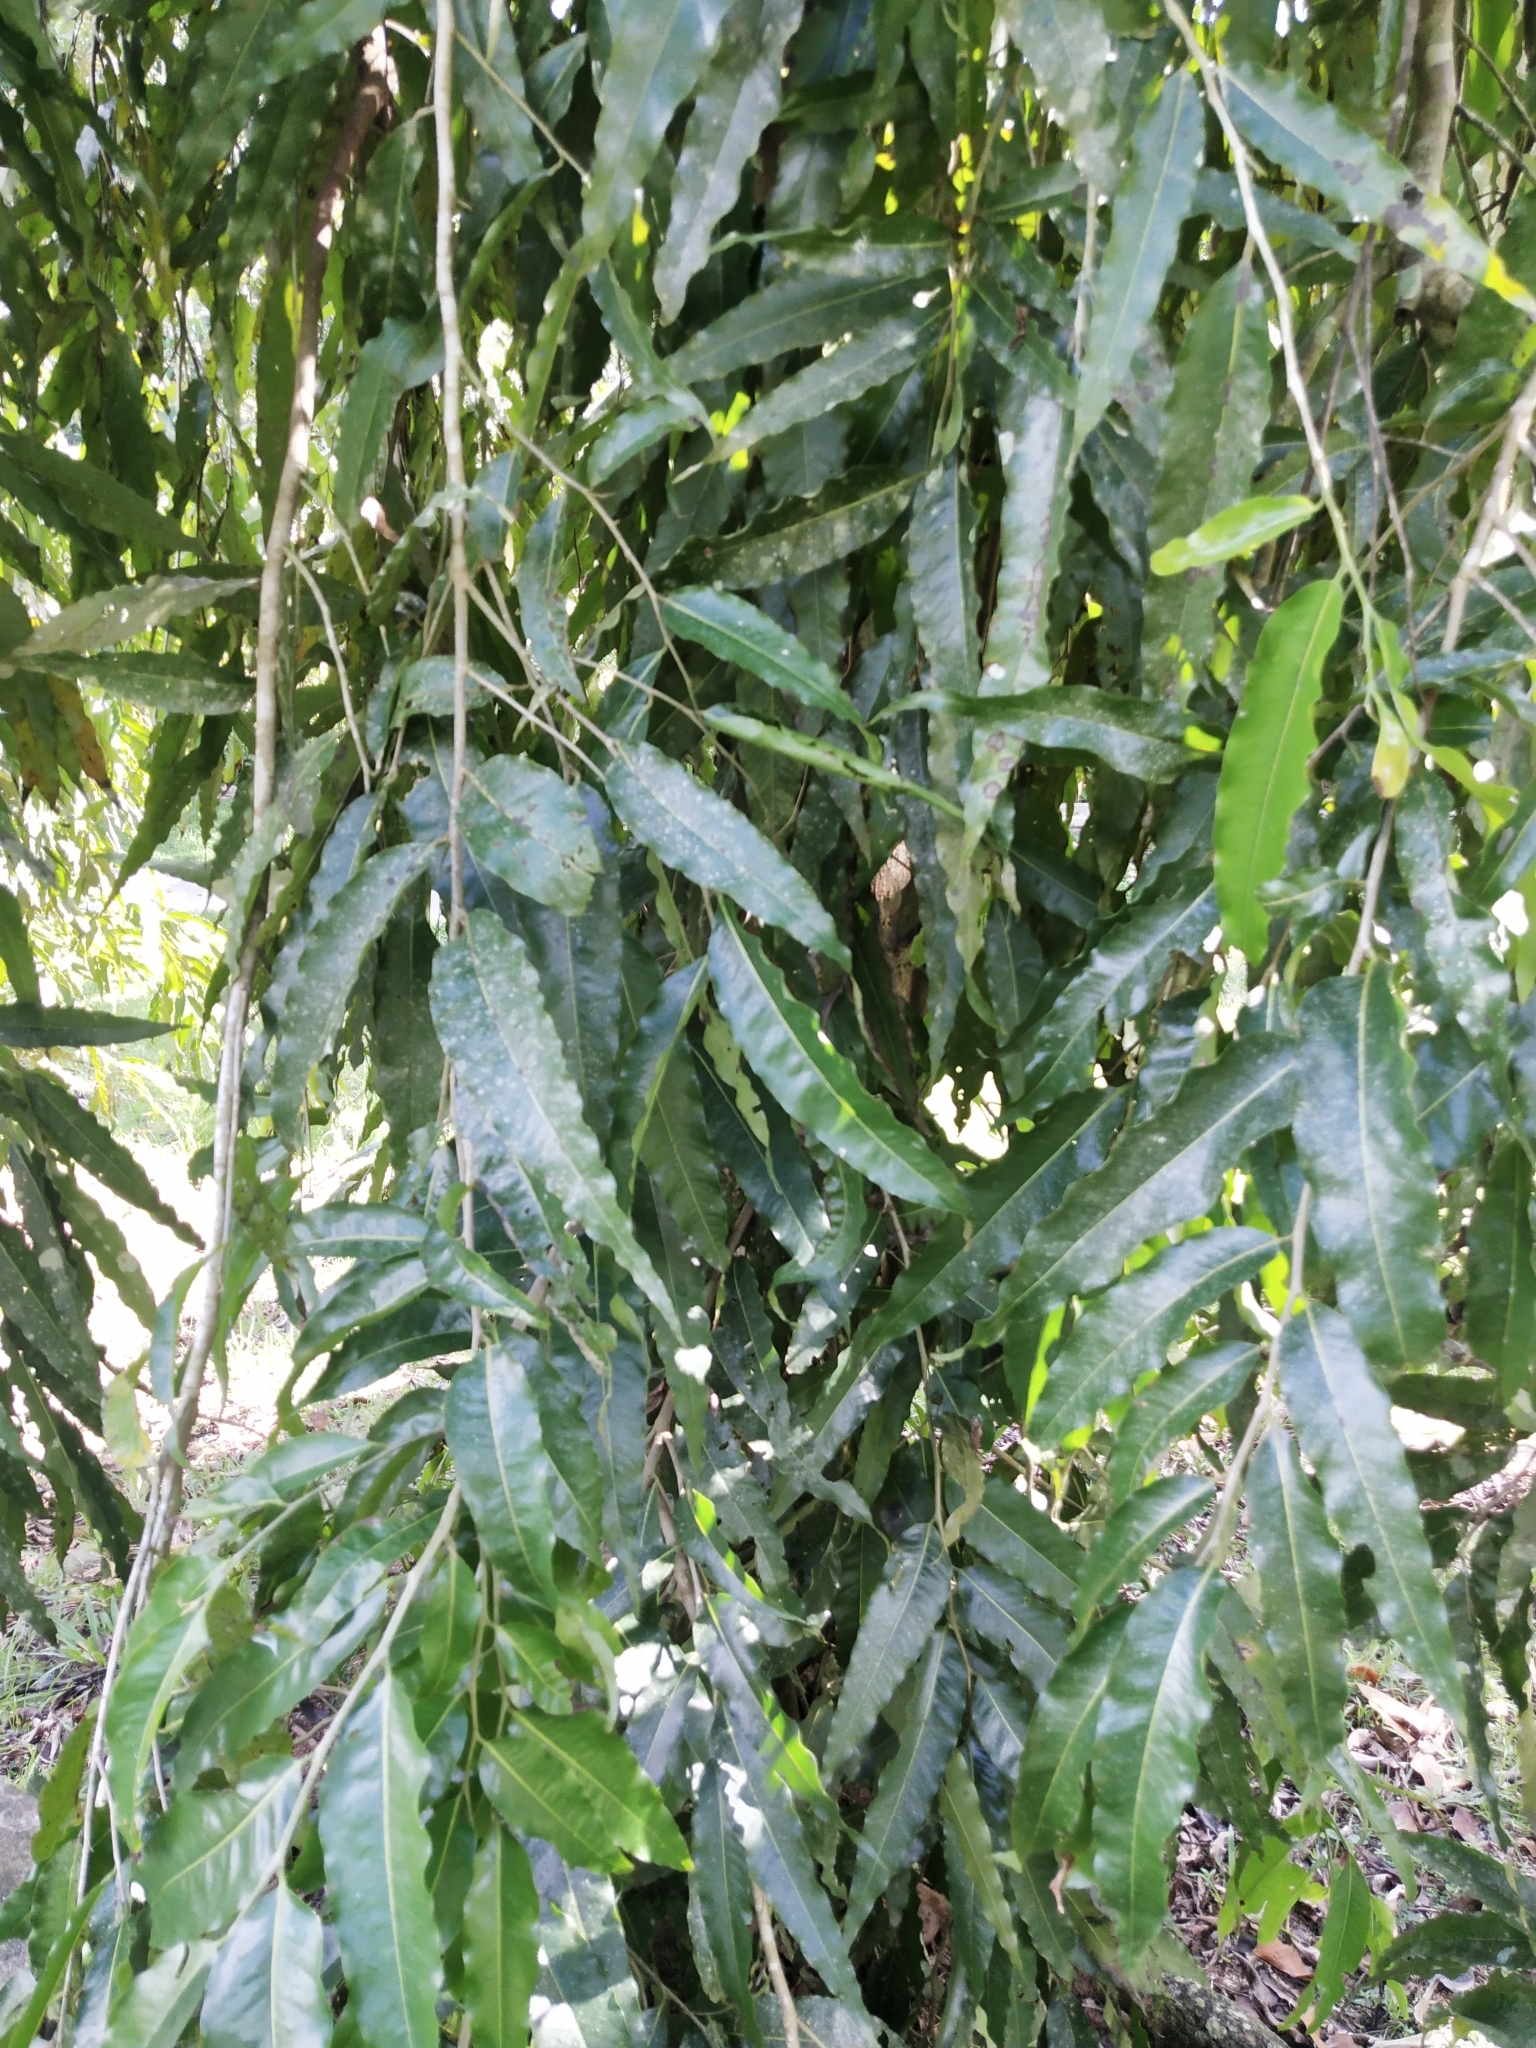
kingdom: Plantae
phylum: Tracheophyta
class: Magnoliopsida
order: Magnoliales
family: Annonaceae
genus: Polyalthia
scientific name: Polyalthia longifolia
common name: Cemetery-tree
